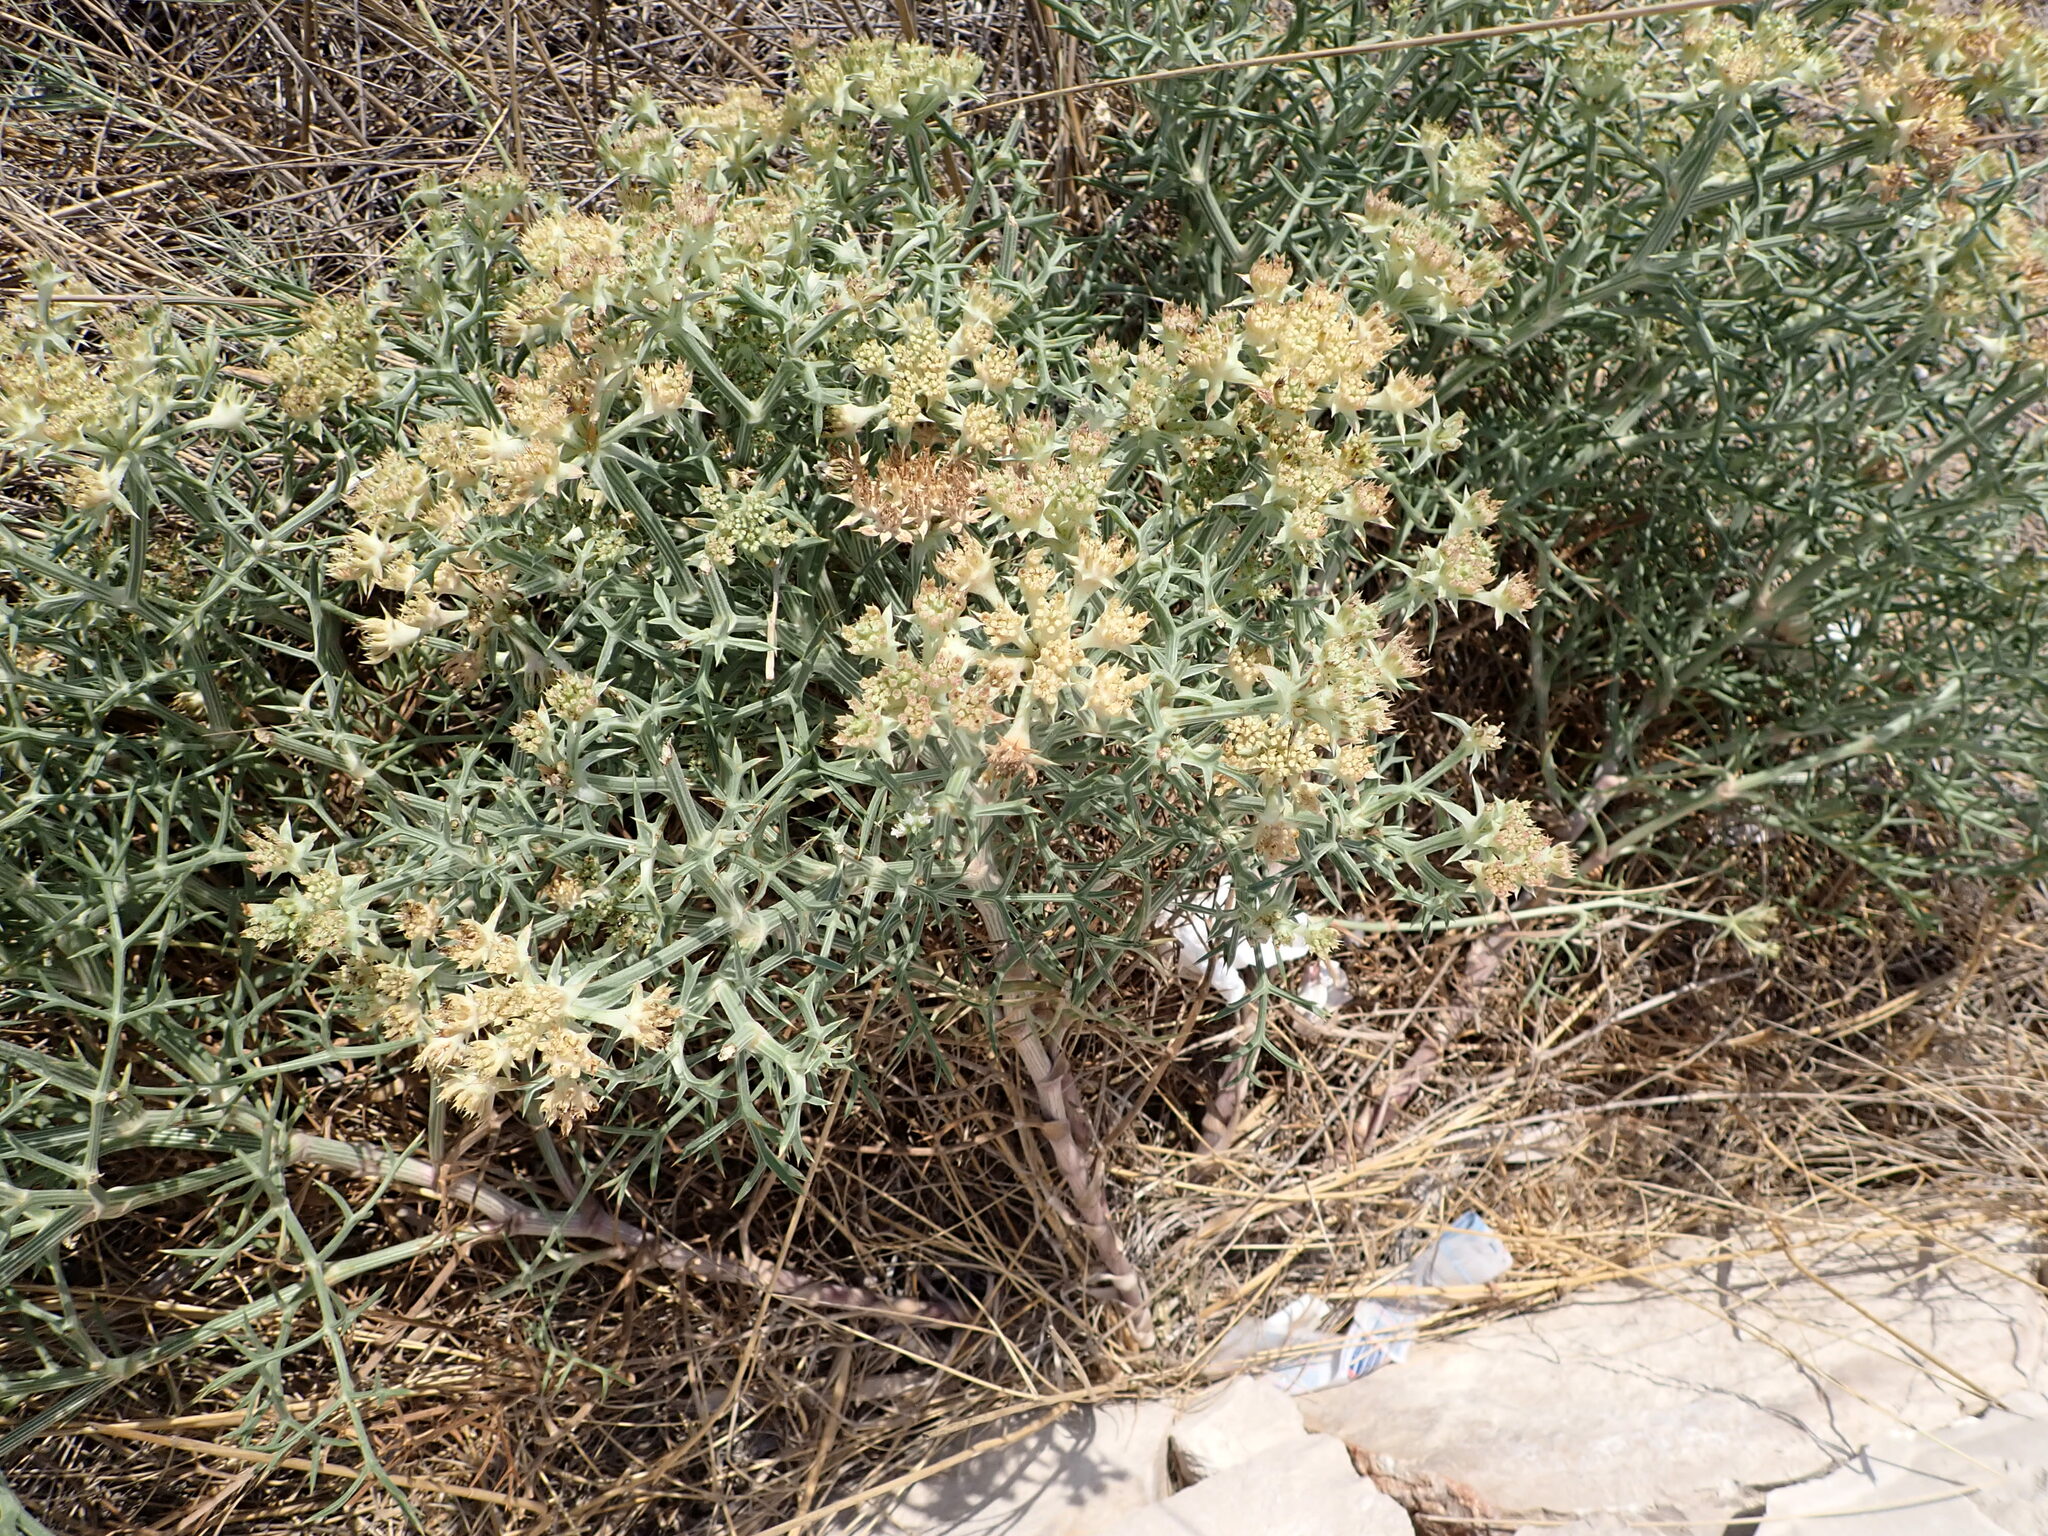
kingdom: Plantae
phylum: Tracheophyta
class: Magnoliopsida
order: Apiales
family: Apiaceae
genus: Echinophora
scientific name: Echinophora spinosa
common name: Prickly samphire
